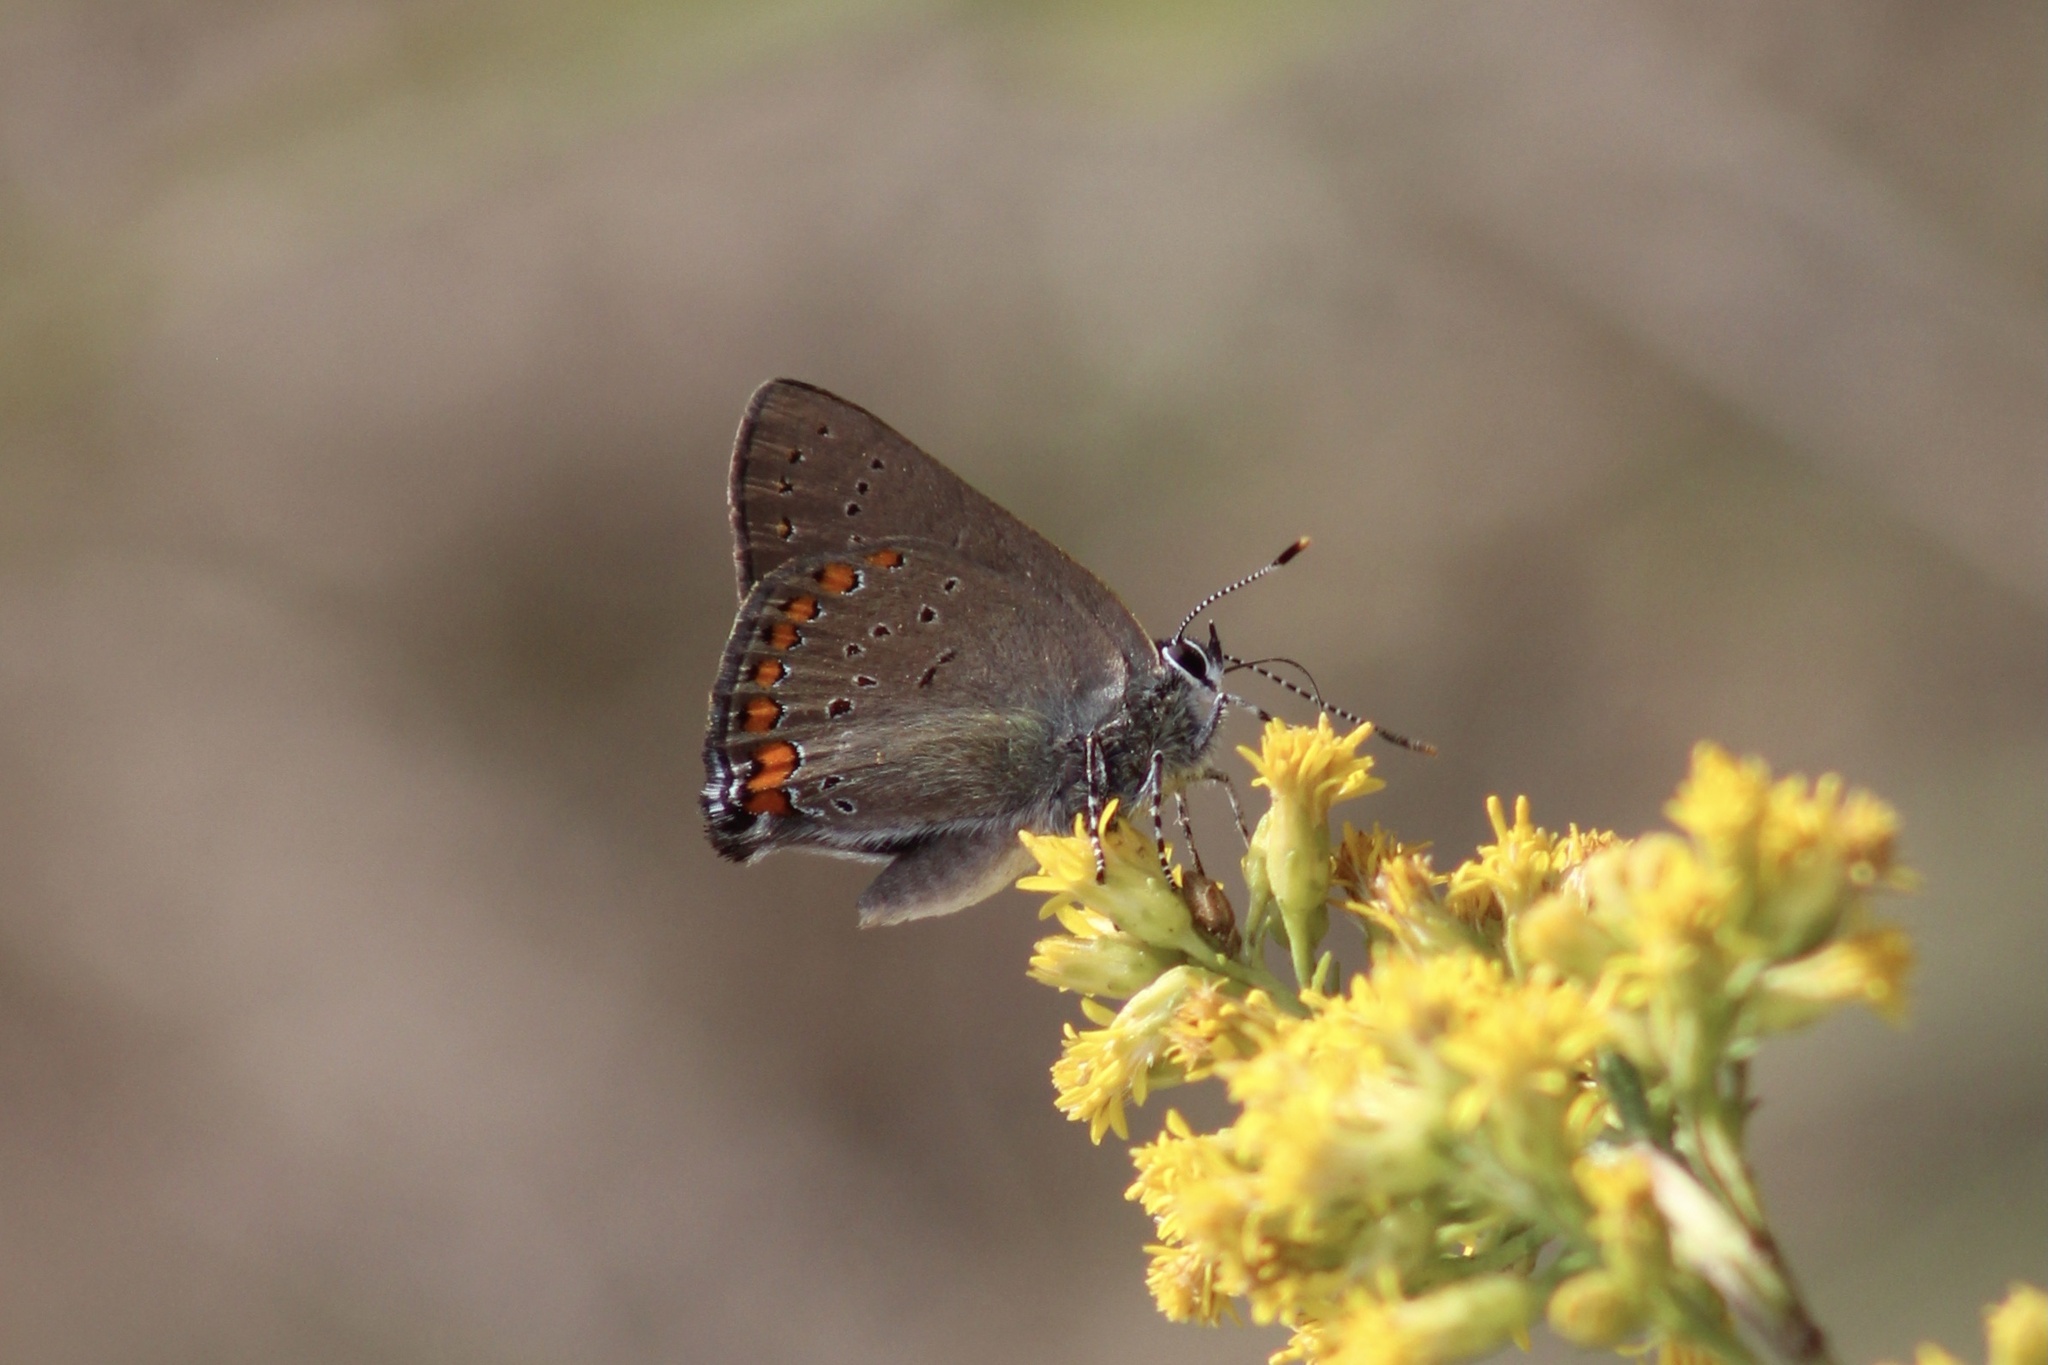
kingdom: Animalia
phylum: Arthropoda
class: Insecta
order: Lepidoptera
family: Lycaenidae
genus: Harkenclenus
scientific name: Harkenclenus titus
